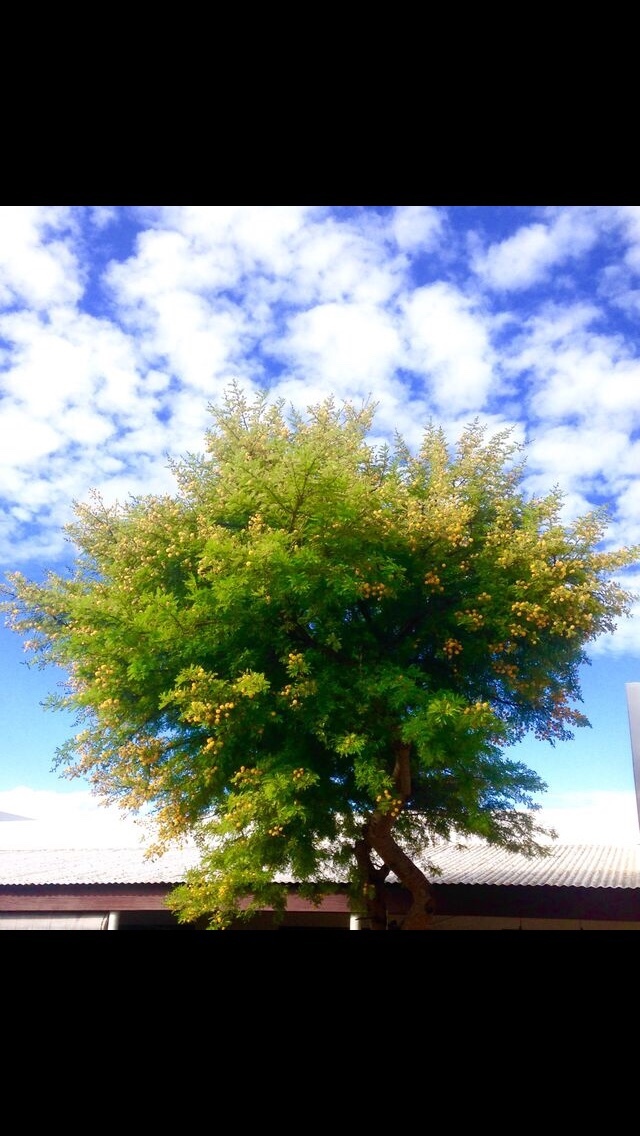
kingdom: Plantae
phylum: Tracheophyta
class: Magnoliopsida
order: Fabales
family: Fabaceae
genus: Vachellia
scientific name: Vachellia karroo
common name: Sweet thorn
